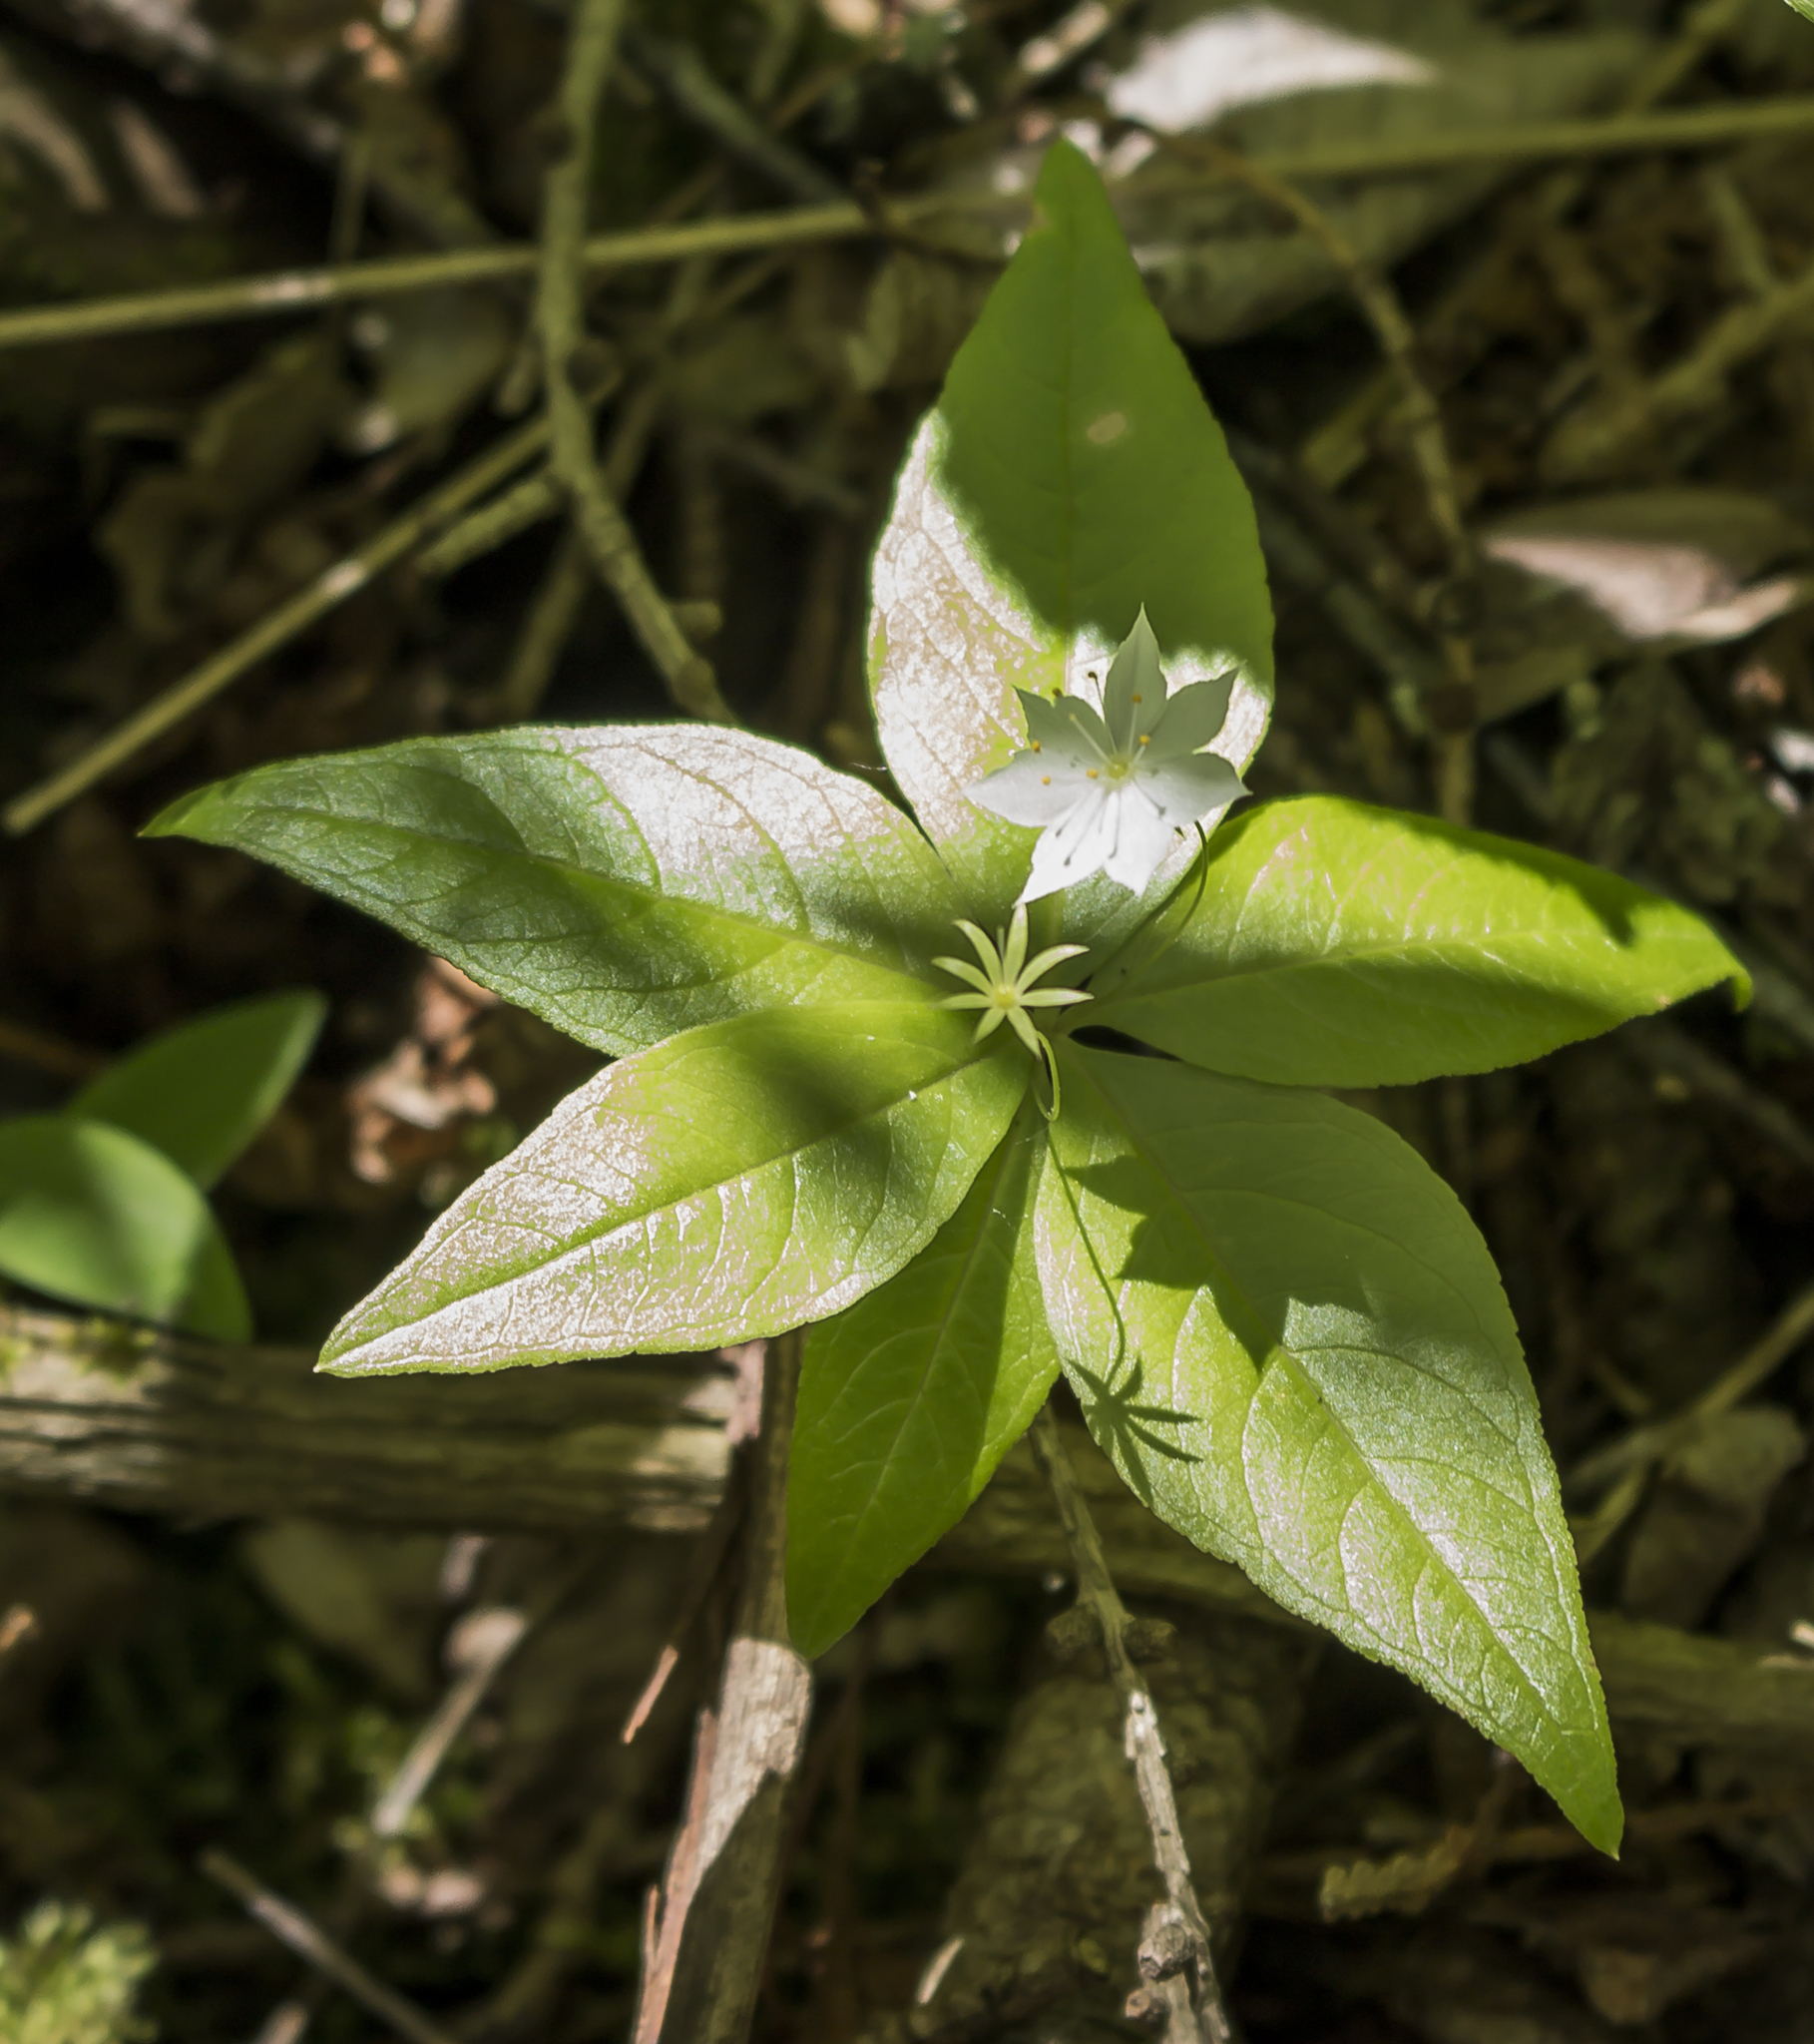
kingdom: Plantae
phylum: Tracheophyta
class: Magnoliopsida
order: Ericales
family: Primulaceae
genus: Lysimachia
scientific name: Lysimachia borealis
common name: American starflower
